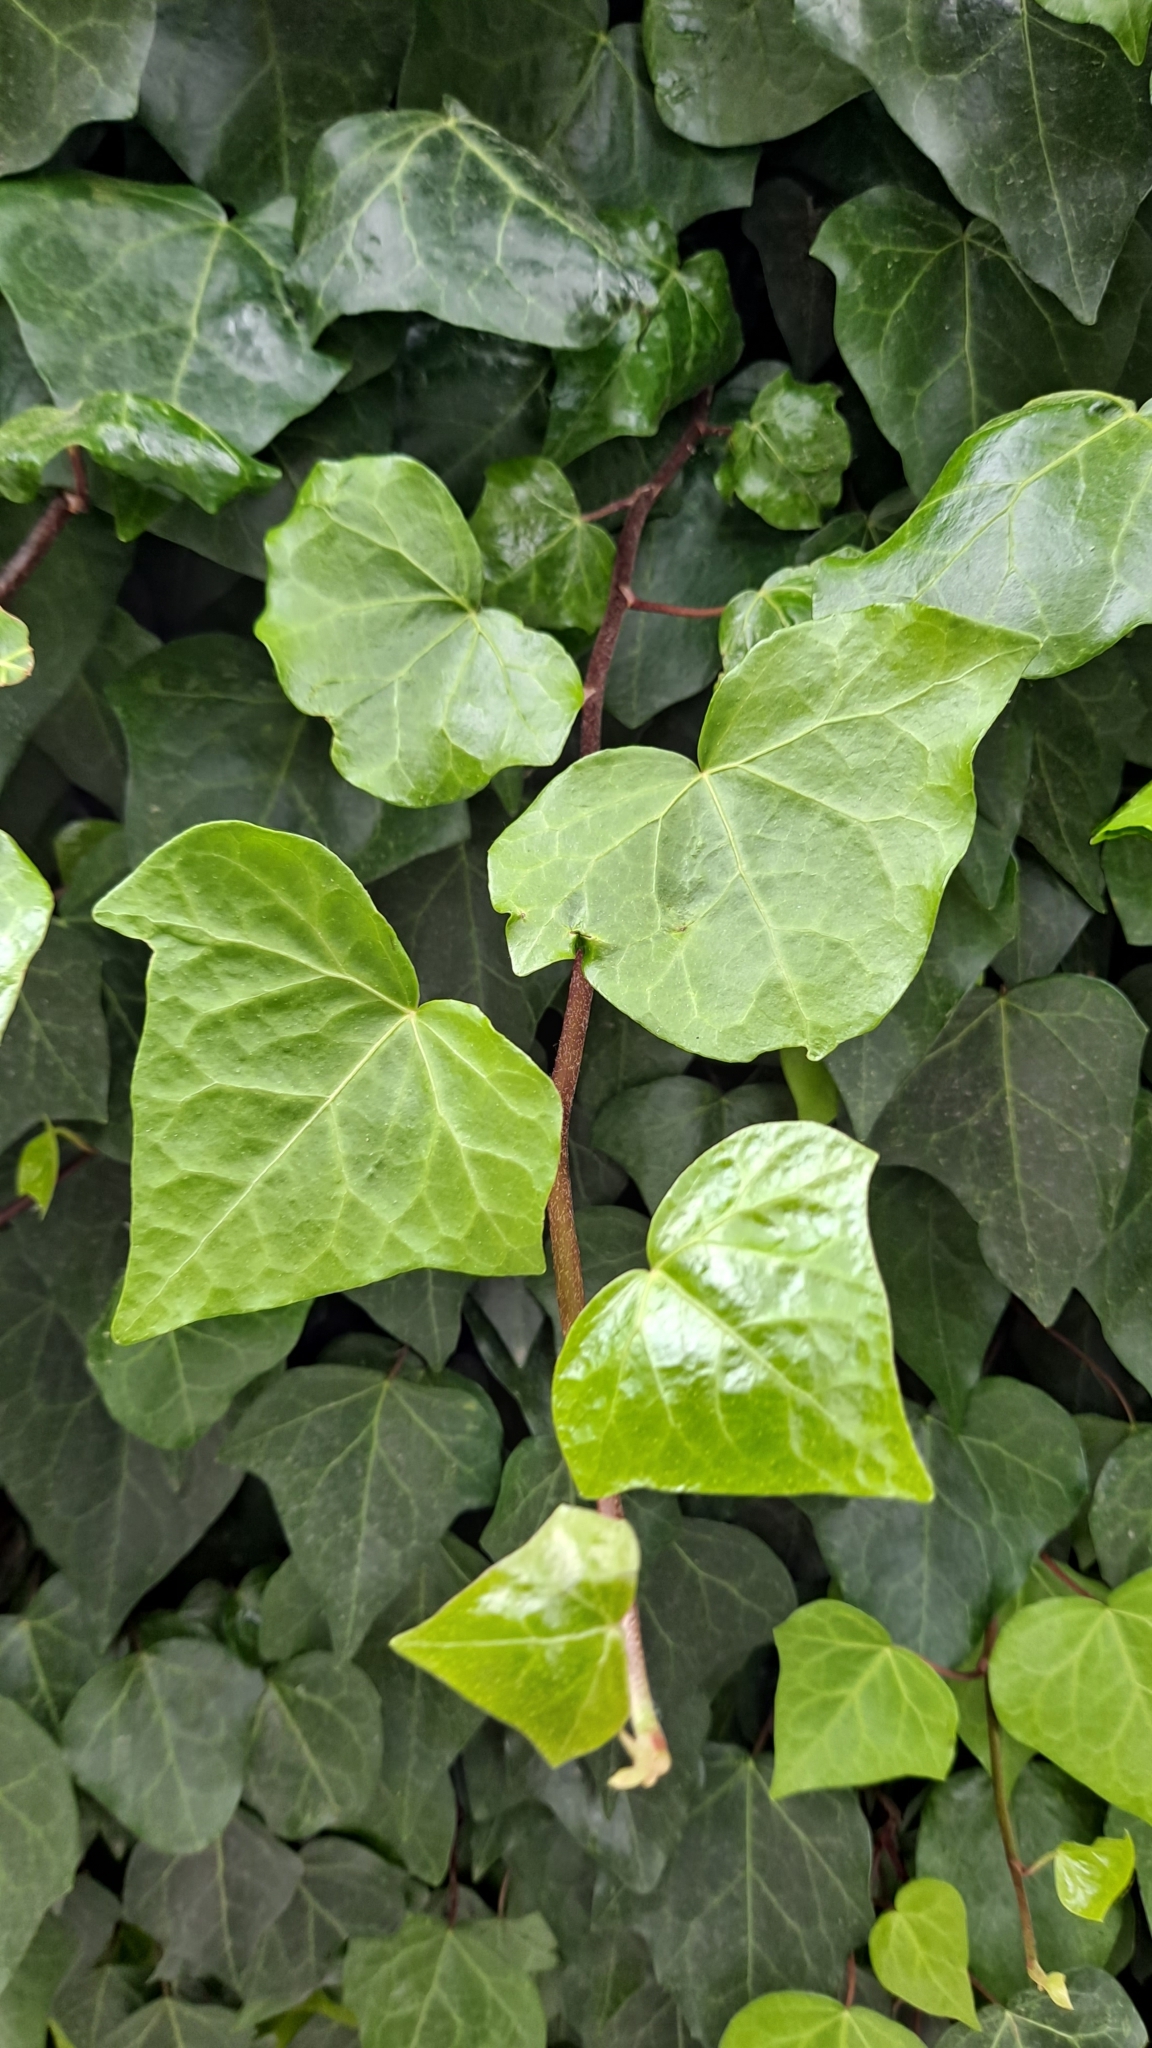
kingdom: Plantae
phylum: Tracheophyta
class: Magnoliopsida
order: Apiales
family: Araliaceae
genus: Hedera
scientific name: Hedera helix
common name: Ivy
